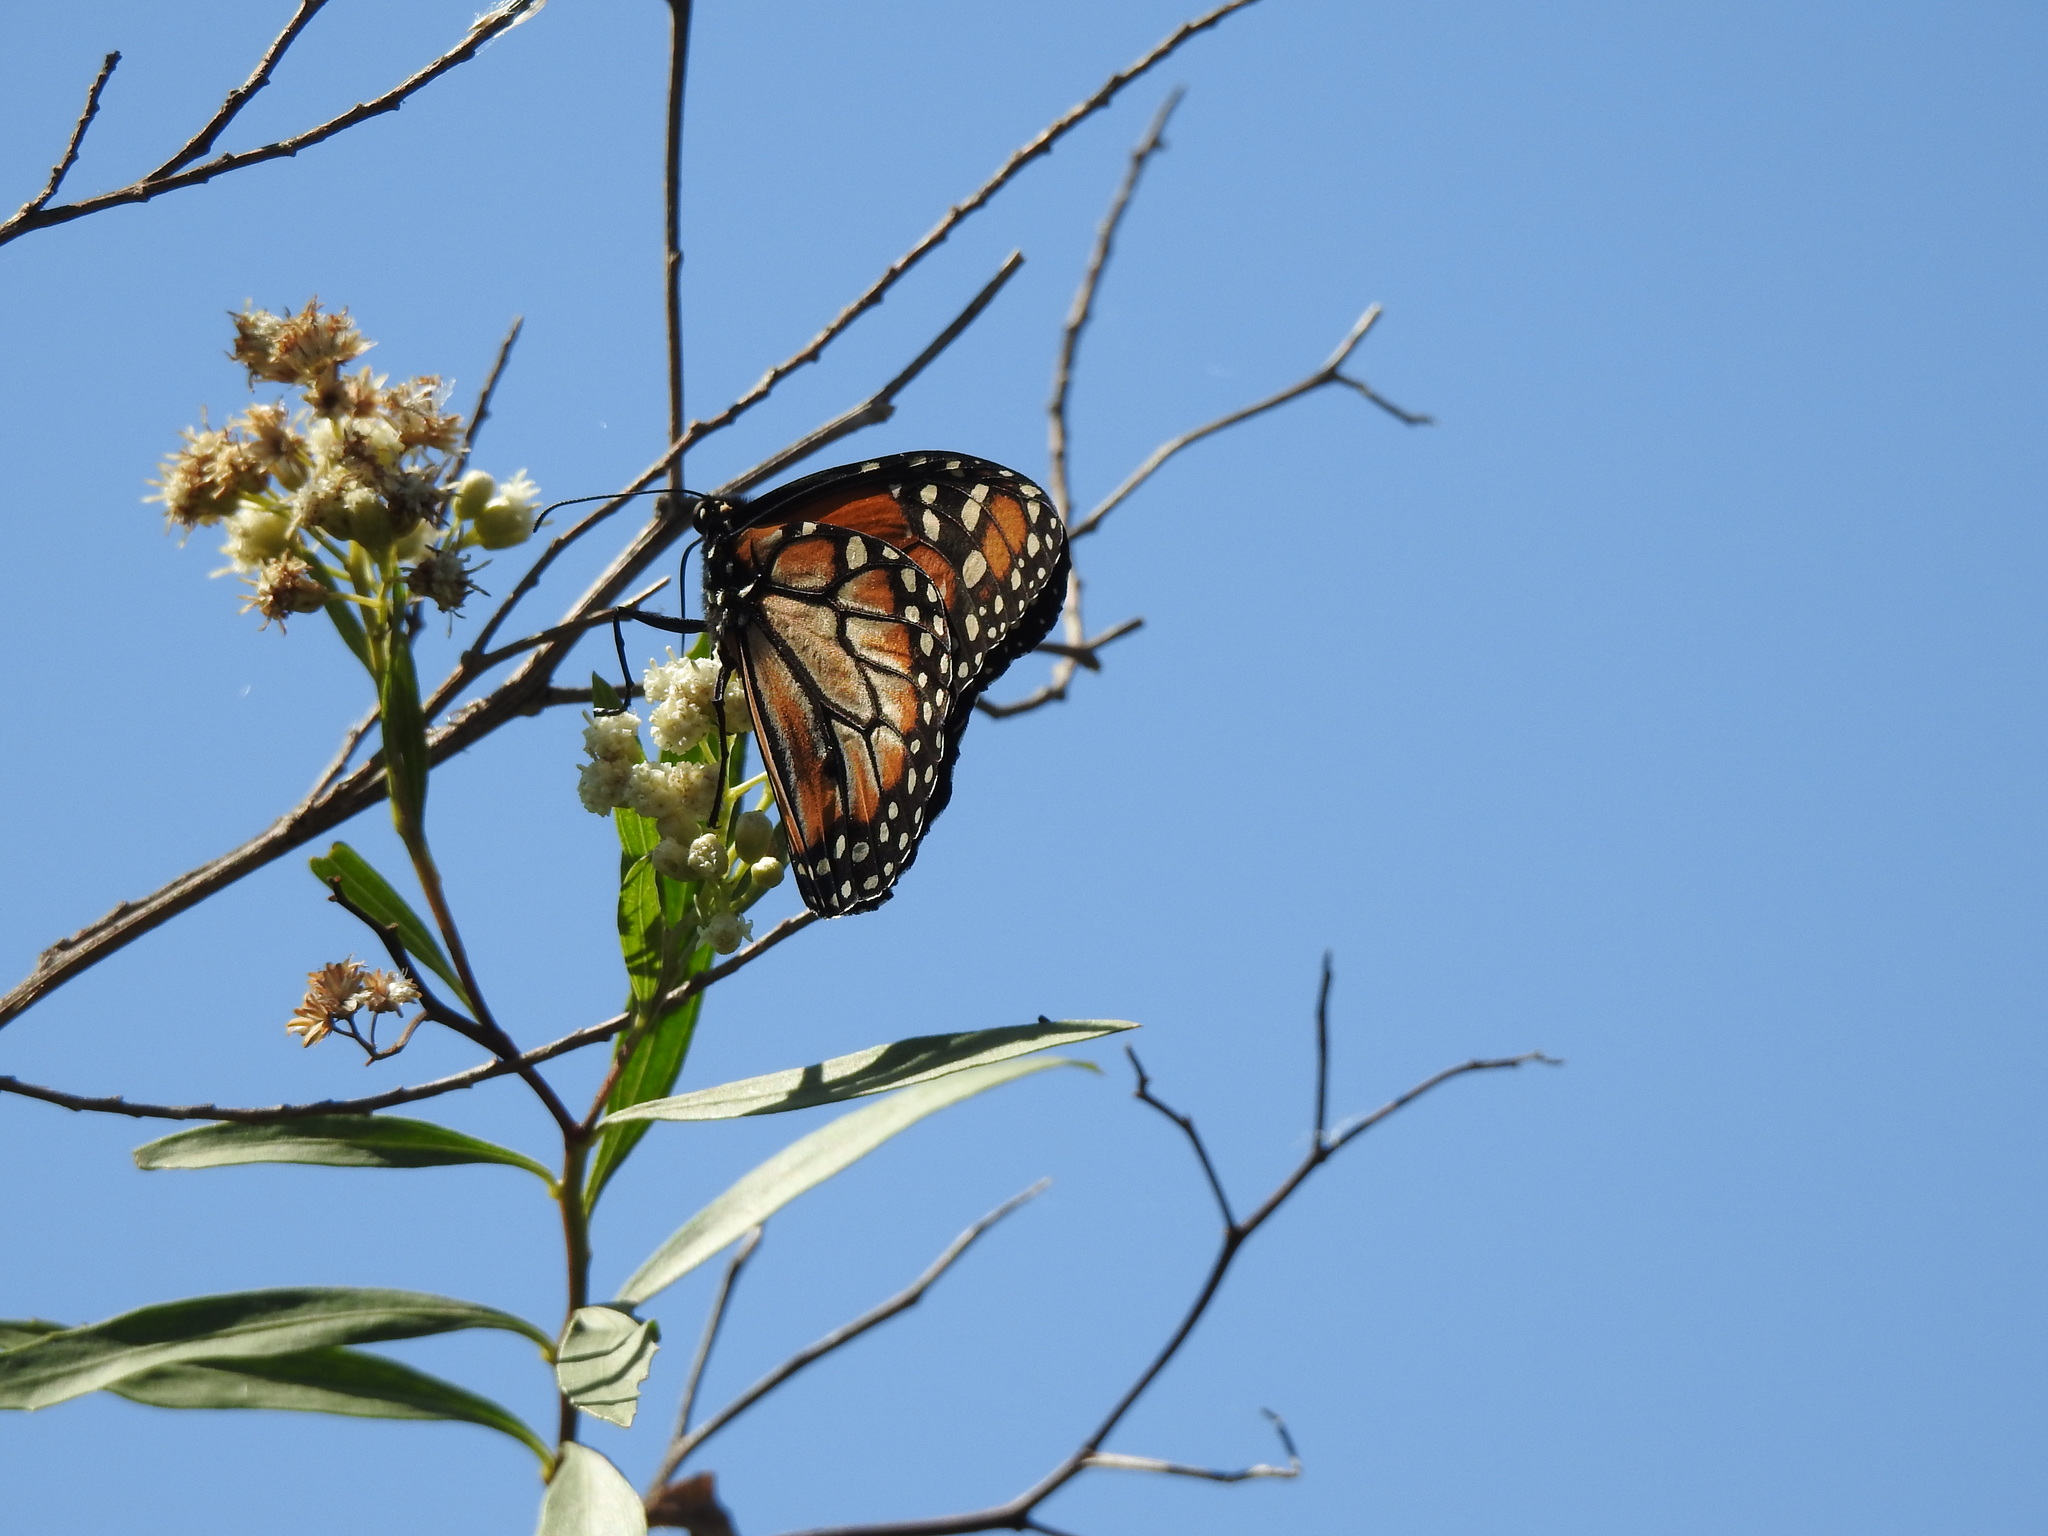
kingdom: Animalia
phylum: Arthropoda
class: Insecta
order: Lepidoptera
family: Nymphalidae
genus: Danaus
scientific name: Danaus erippus
